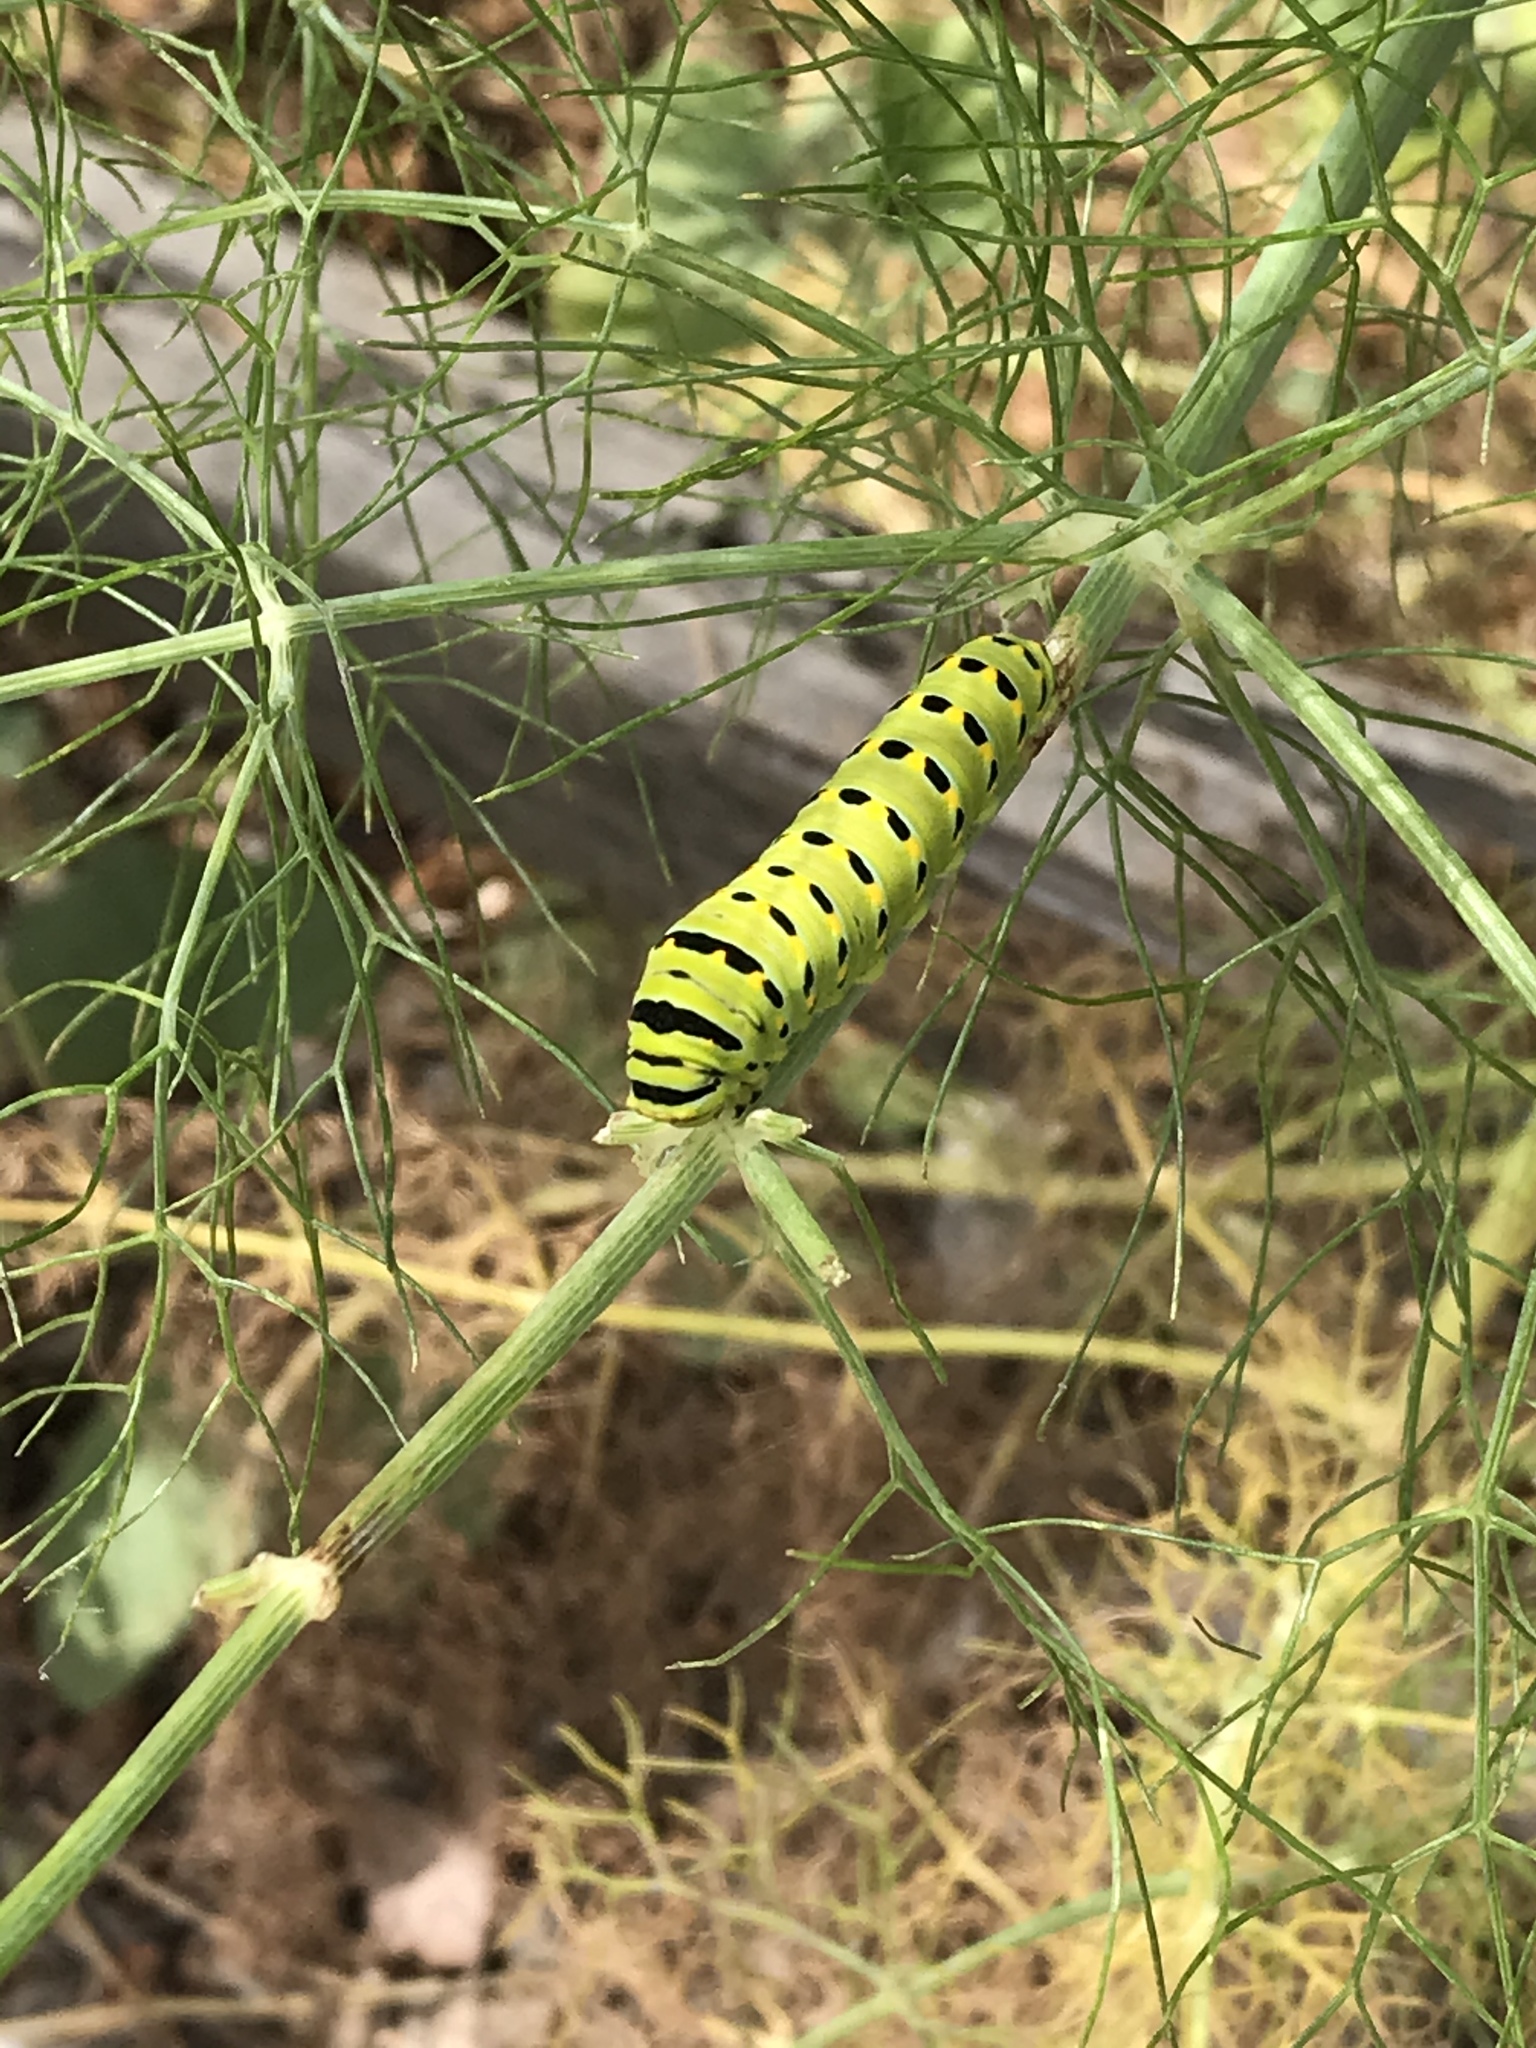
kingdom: Animalia
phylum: Arthropoda
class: Insecta
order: Lepidoptera
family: Papilionidae
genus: Papilio
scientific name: Papilio zelicaon
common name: Anise swallowtail
